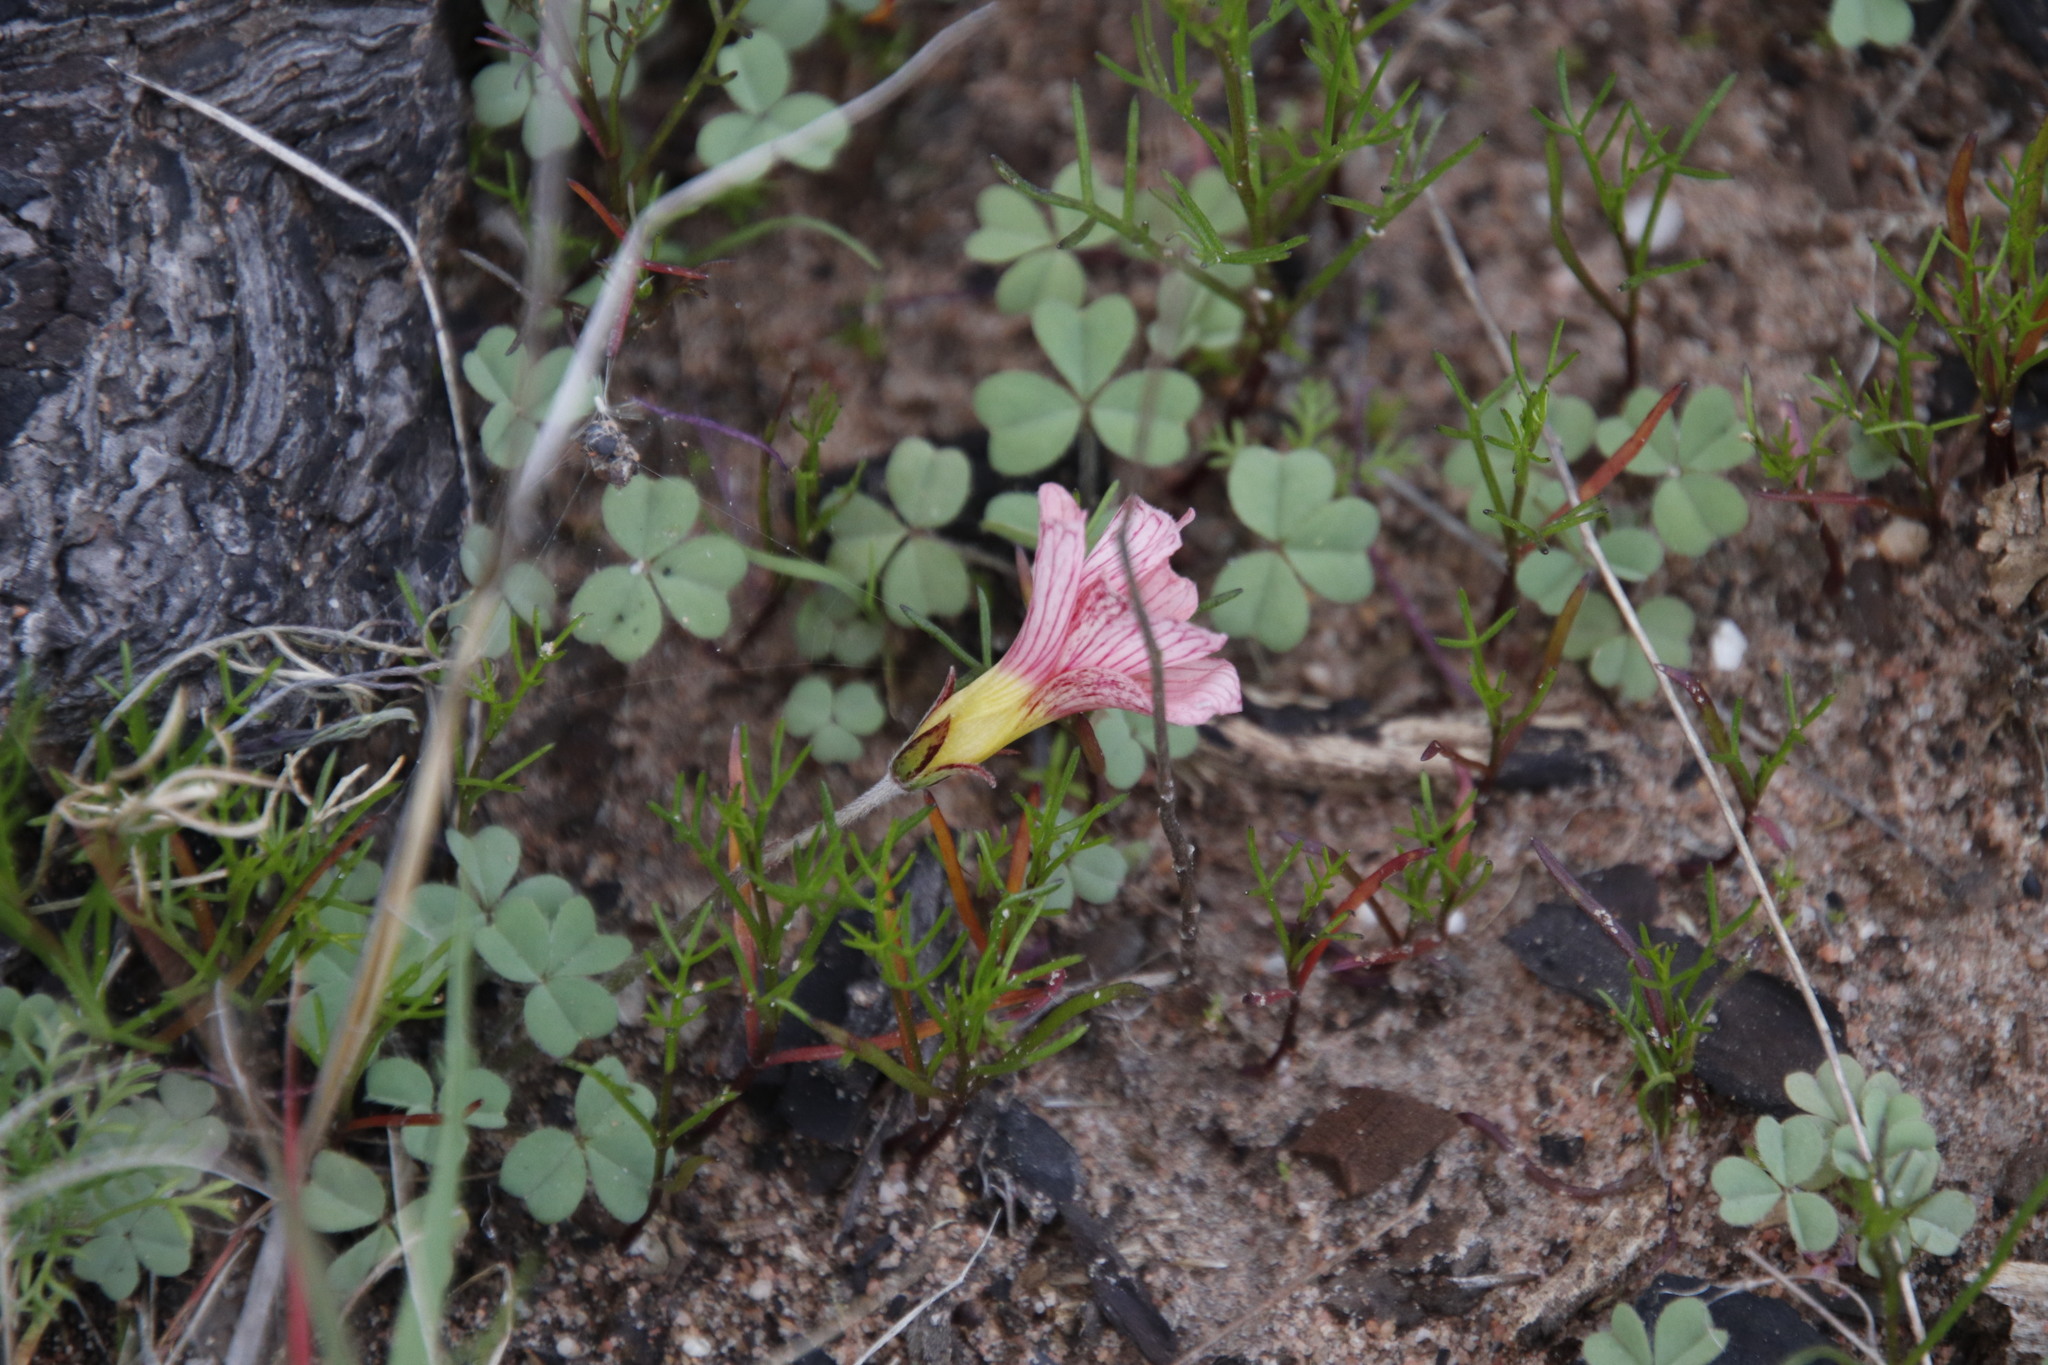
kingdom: Plantae
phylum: Tracheophyta
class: Magnoliopsida
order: Oxalidales
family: Oxalidaceae
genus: Oxalis
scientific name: Oxalis obtusa
